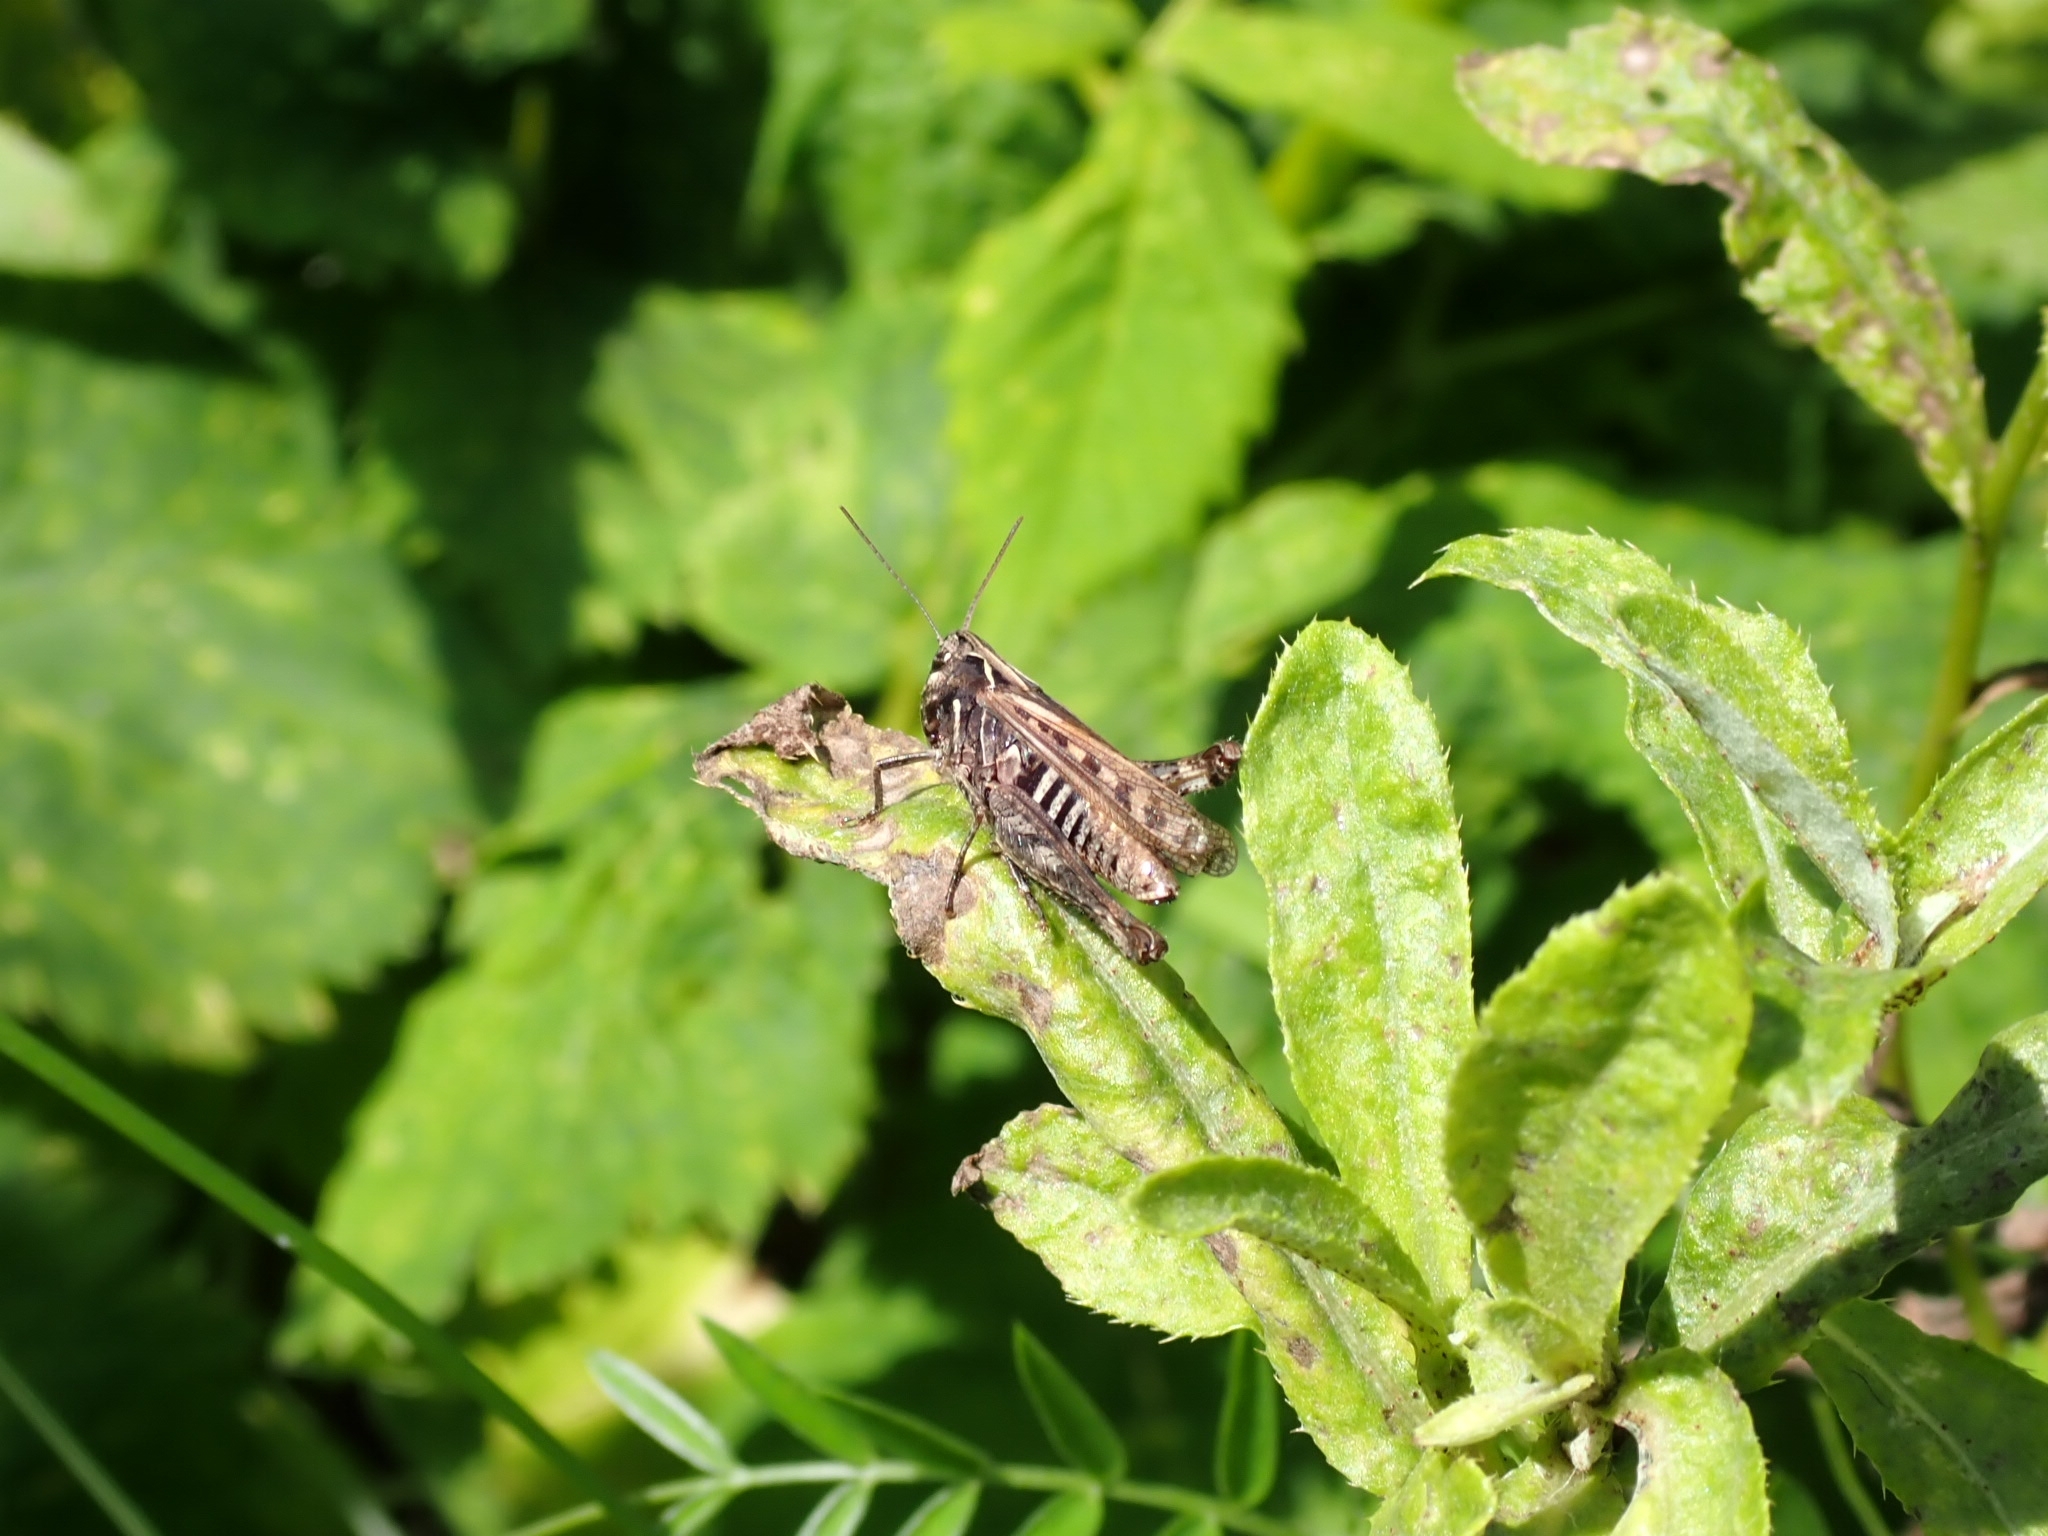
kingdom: Animalia
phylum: Arthropoda
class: Insecta
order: Orthoptera
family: Acrididae
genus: Omocestus
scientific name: Omocestus haemorrhoidalis
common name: Orange-tipped grasshopper
